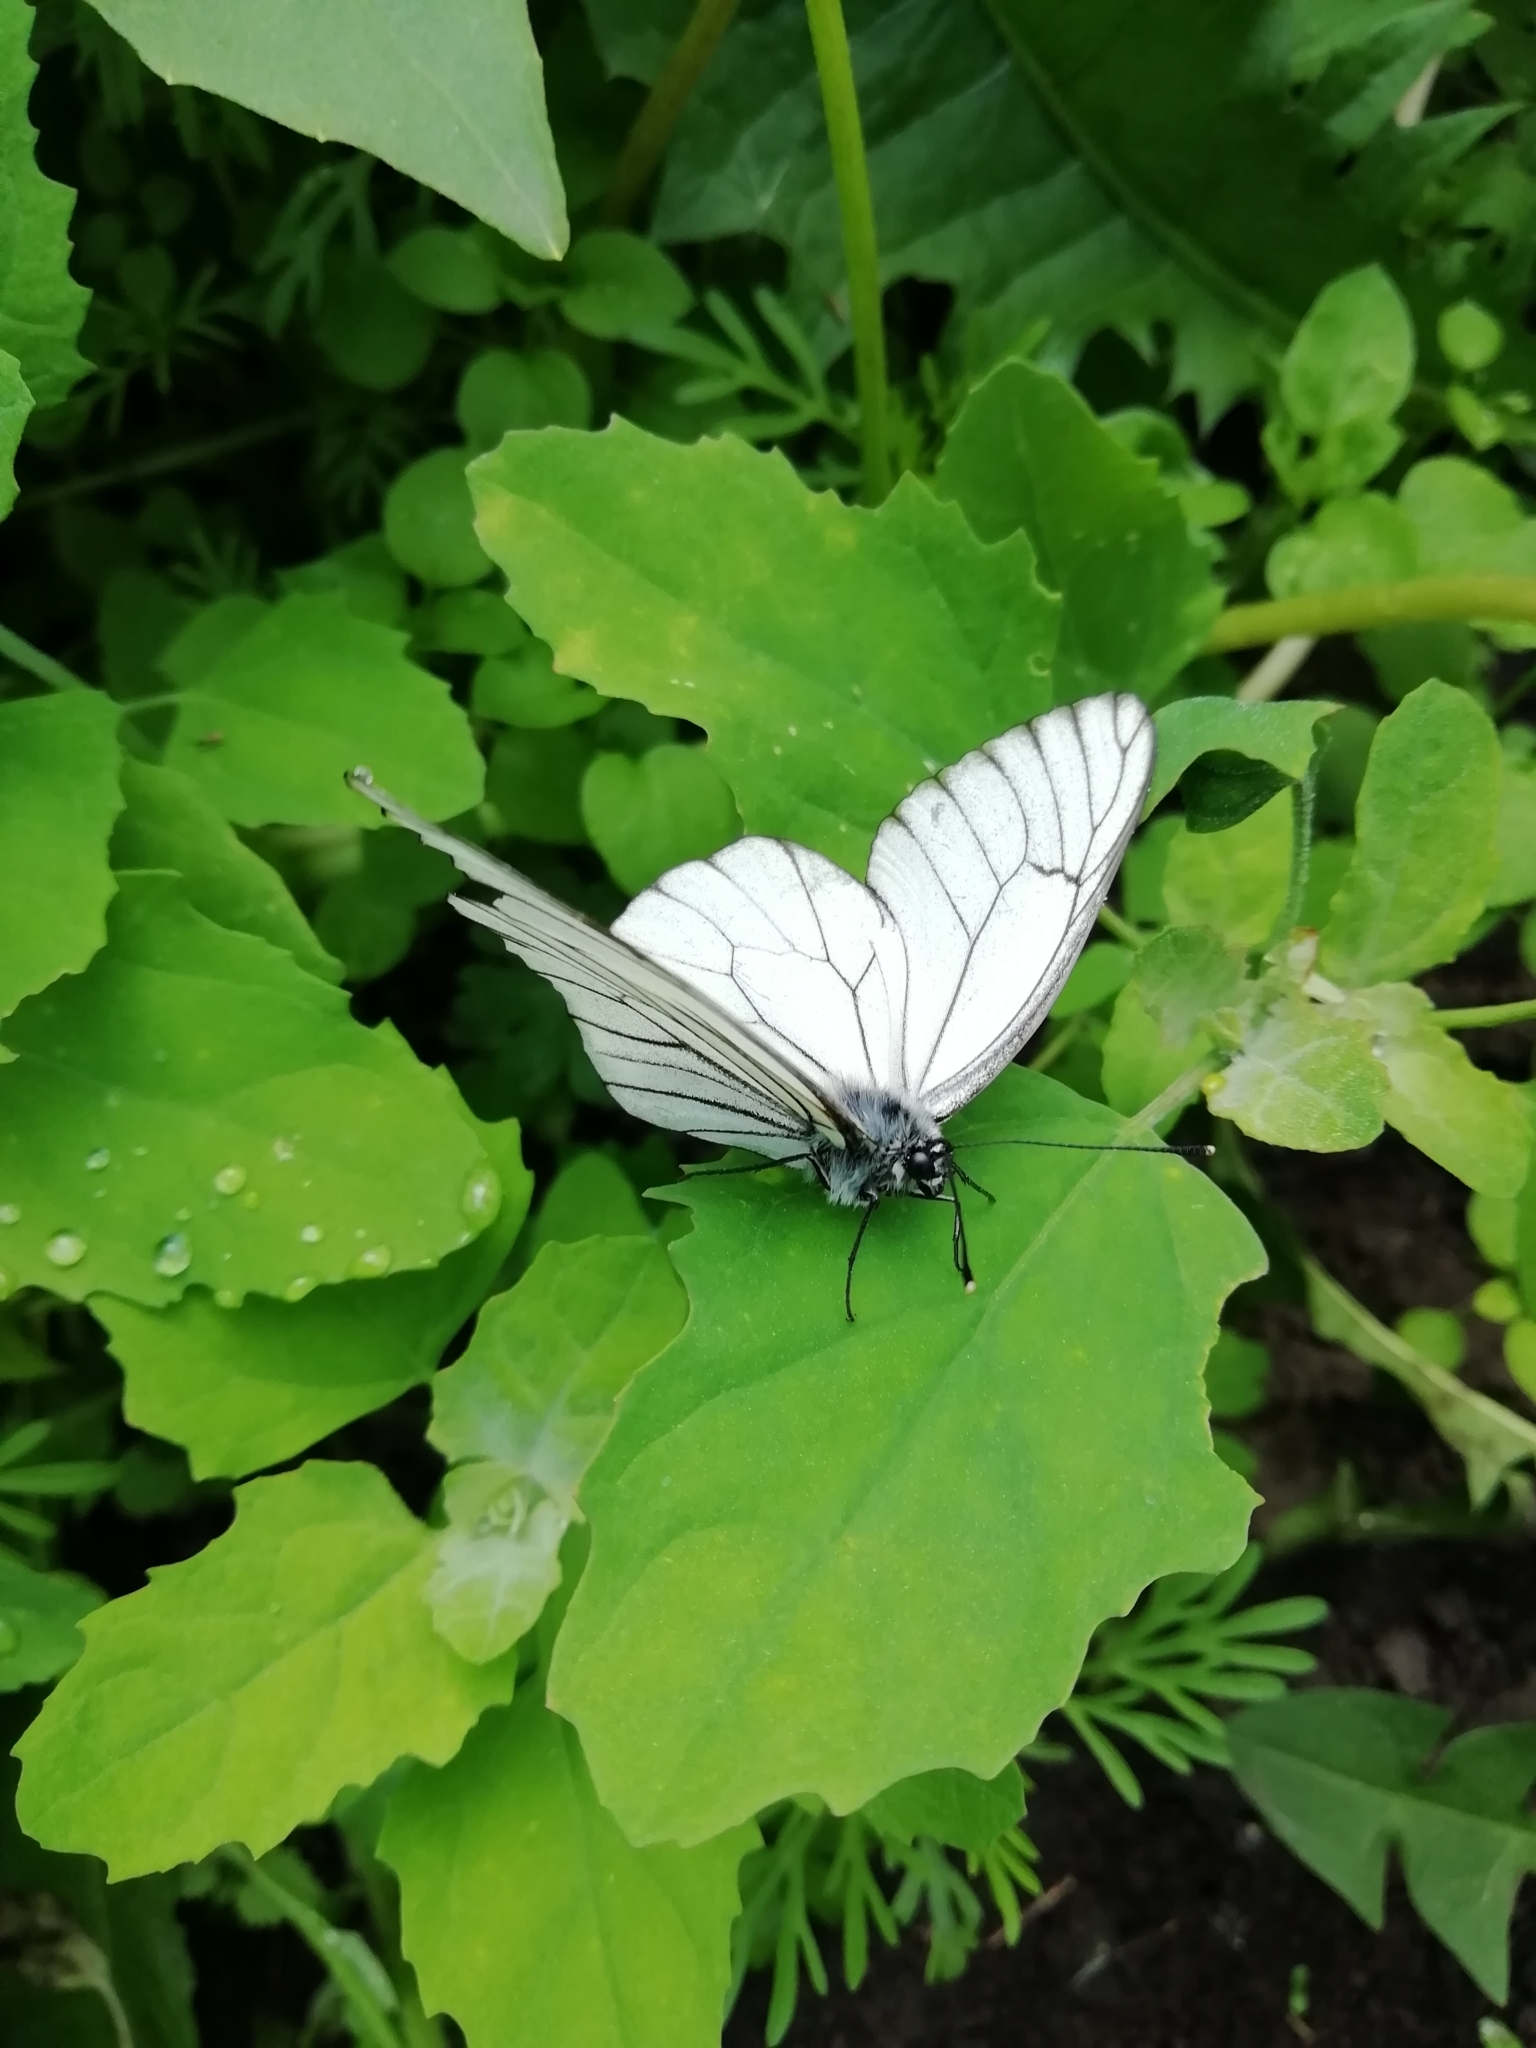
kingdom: Animalia
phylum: Arthropoda
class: Insecta
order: Lepidoptera
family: Pieridae
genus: Aporia
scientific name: Aporia crataegi
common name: Black-veined white
